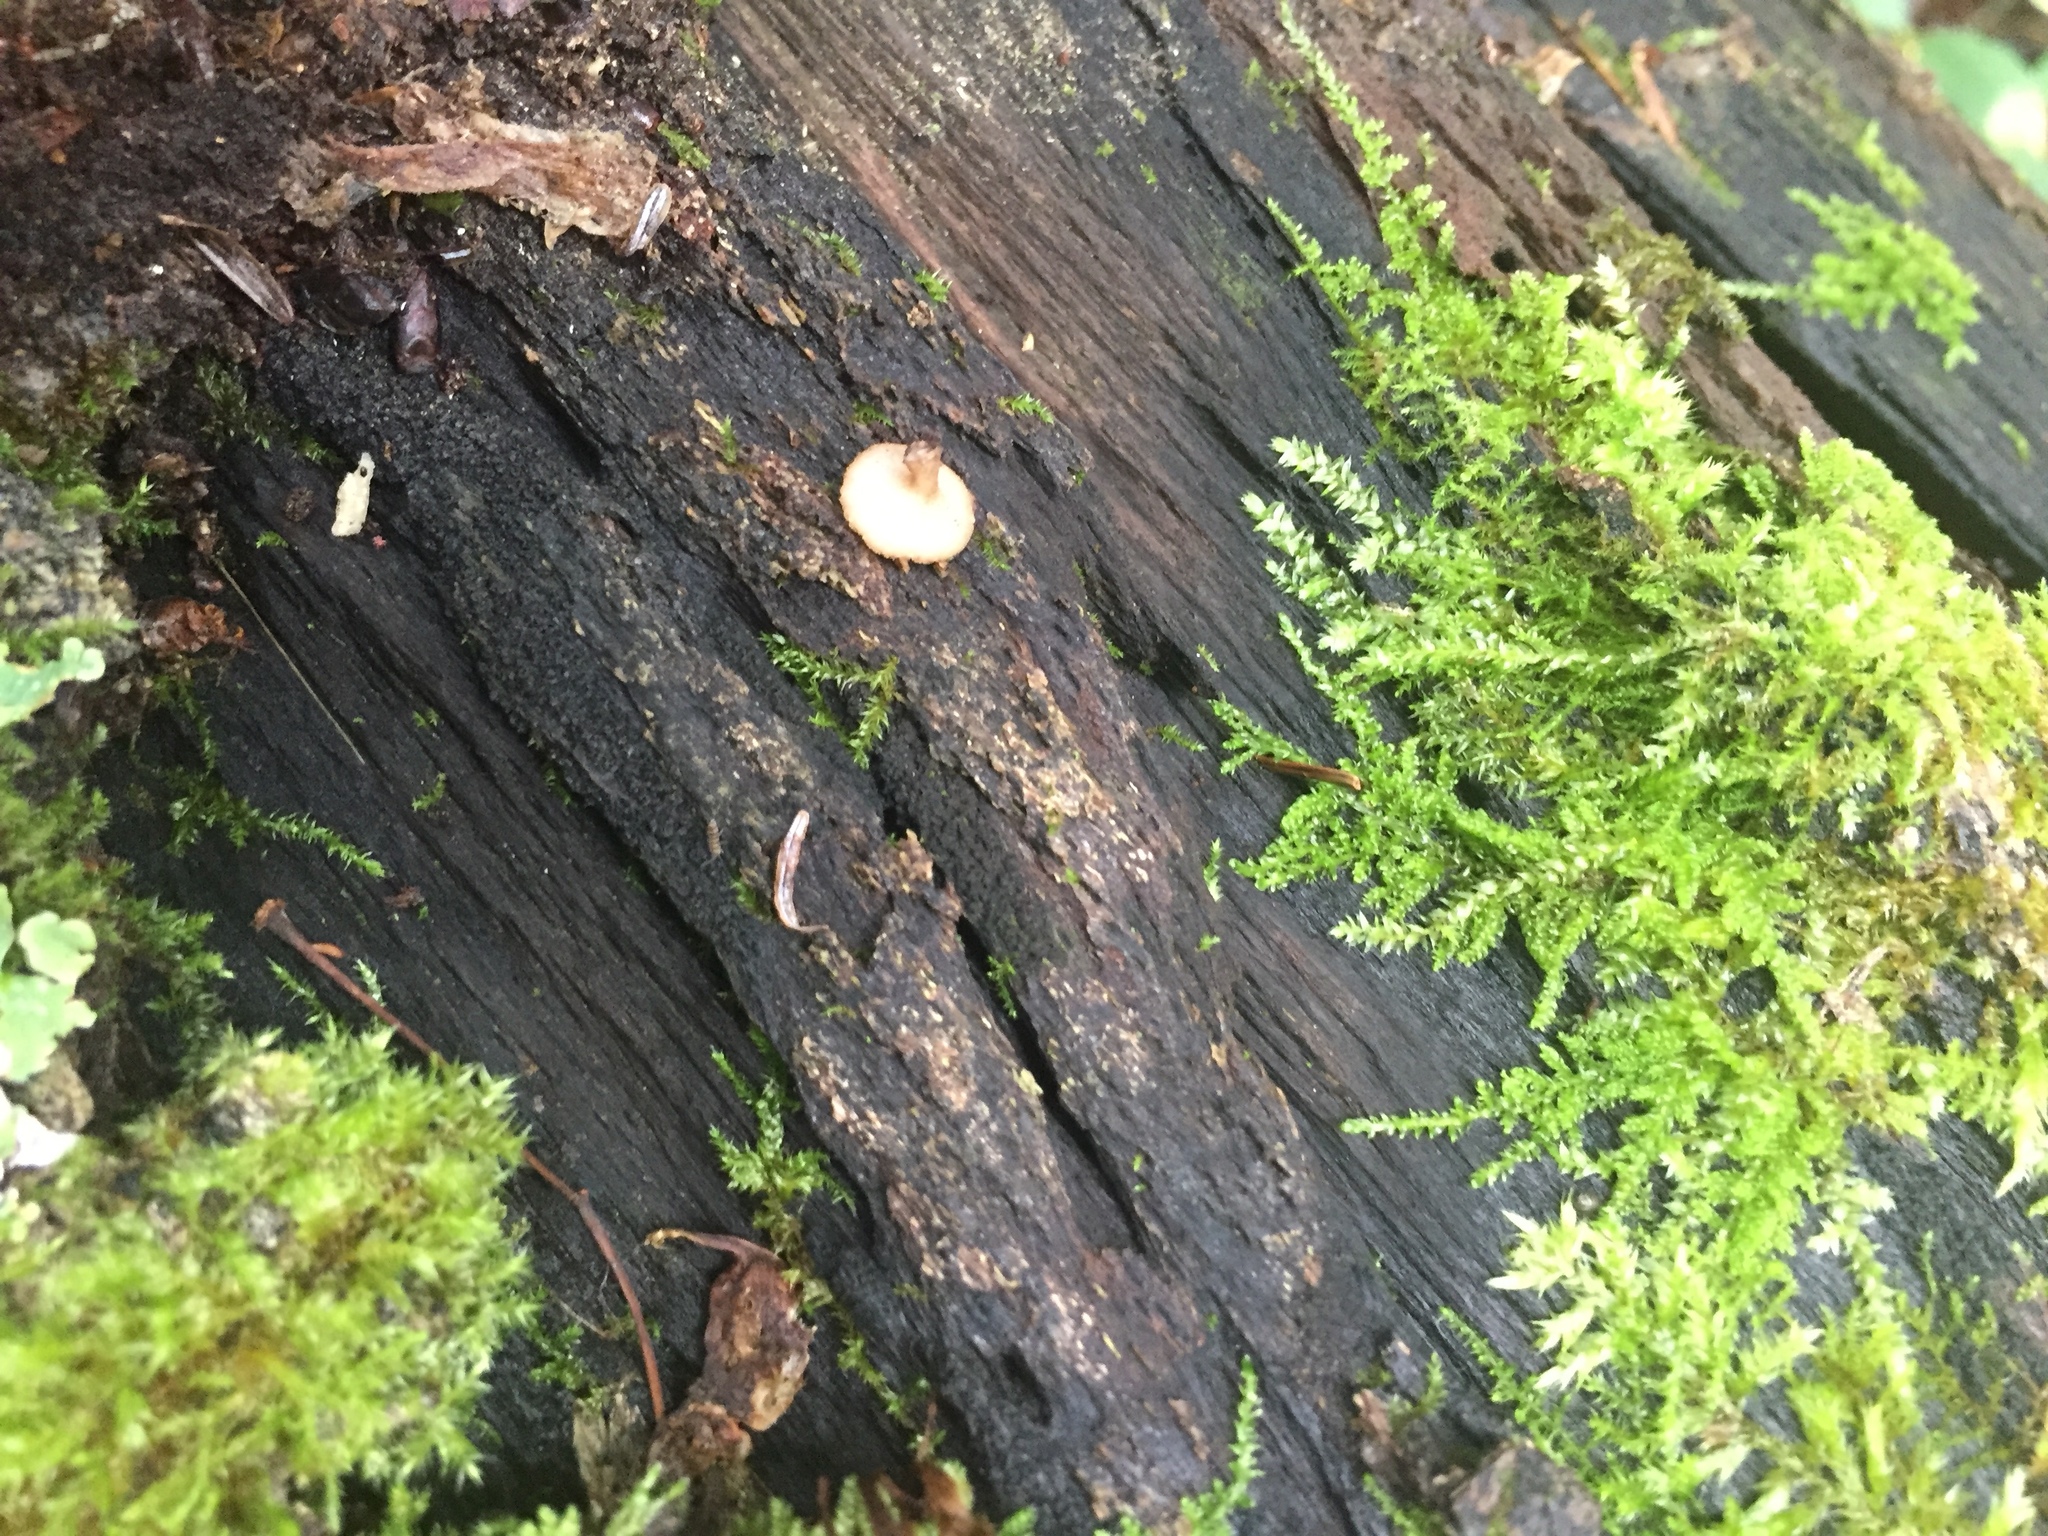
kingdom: Fungi
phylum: Ascomycota
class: Leotiomycetes
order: Helotiales
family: Helotiaceae
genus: Tatraea
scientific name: Tatraea macrospora
